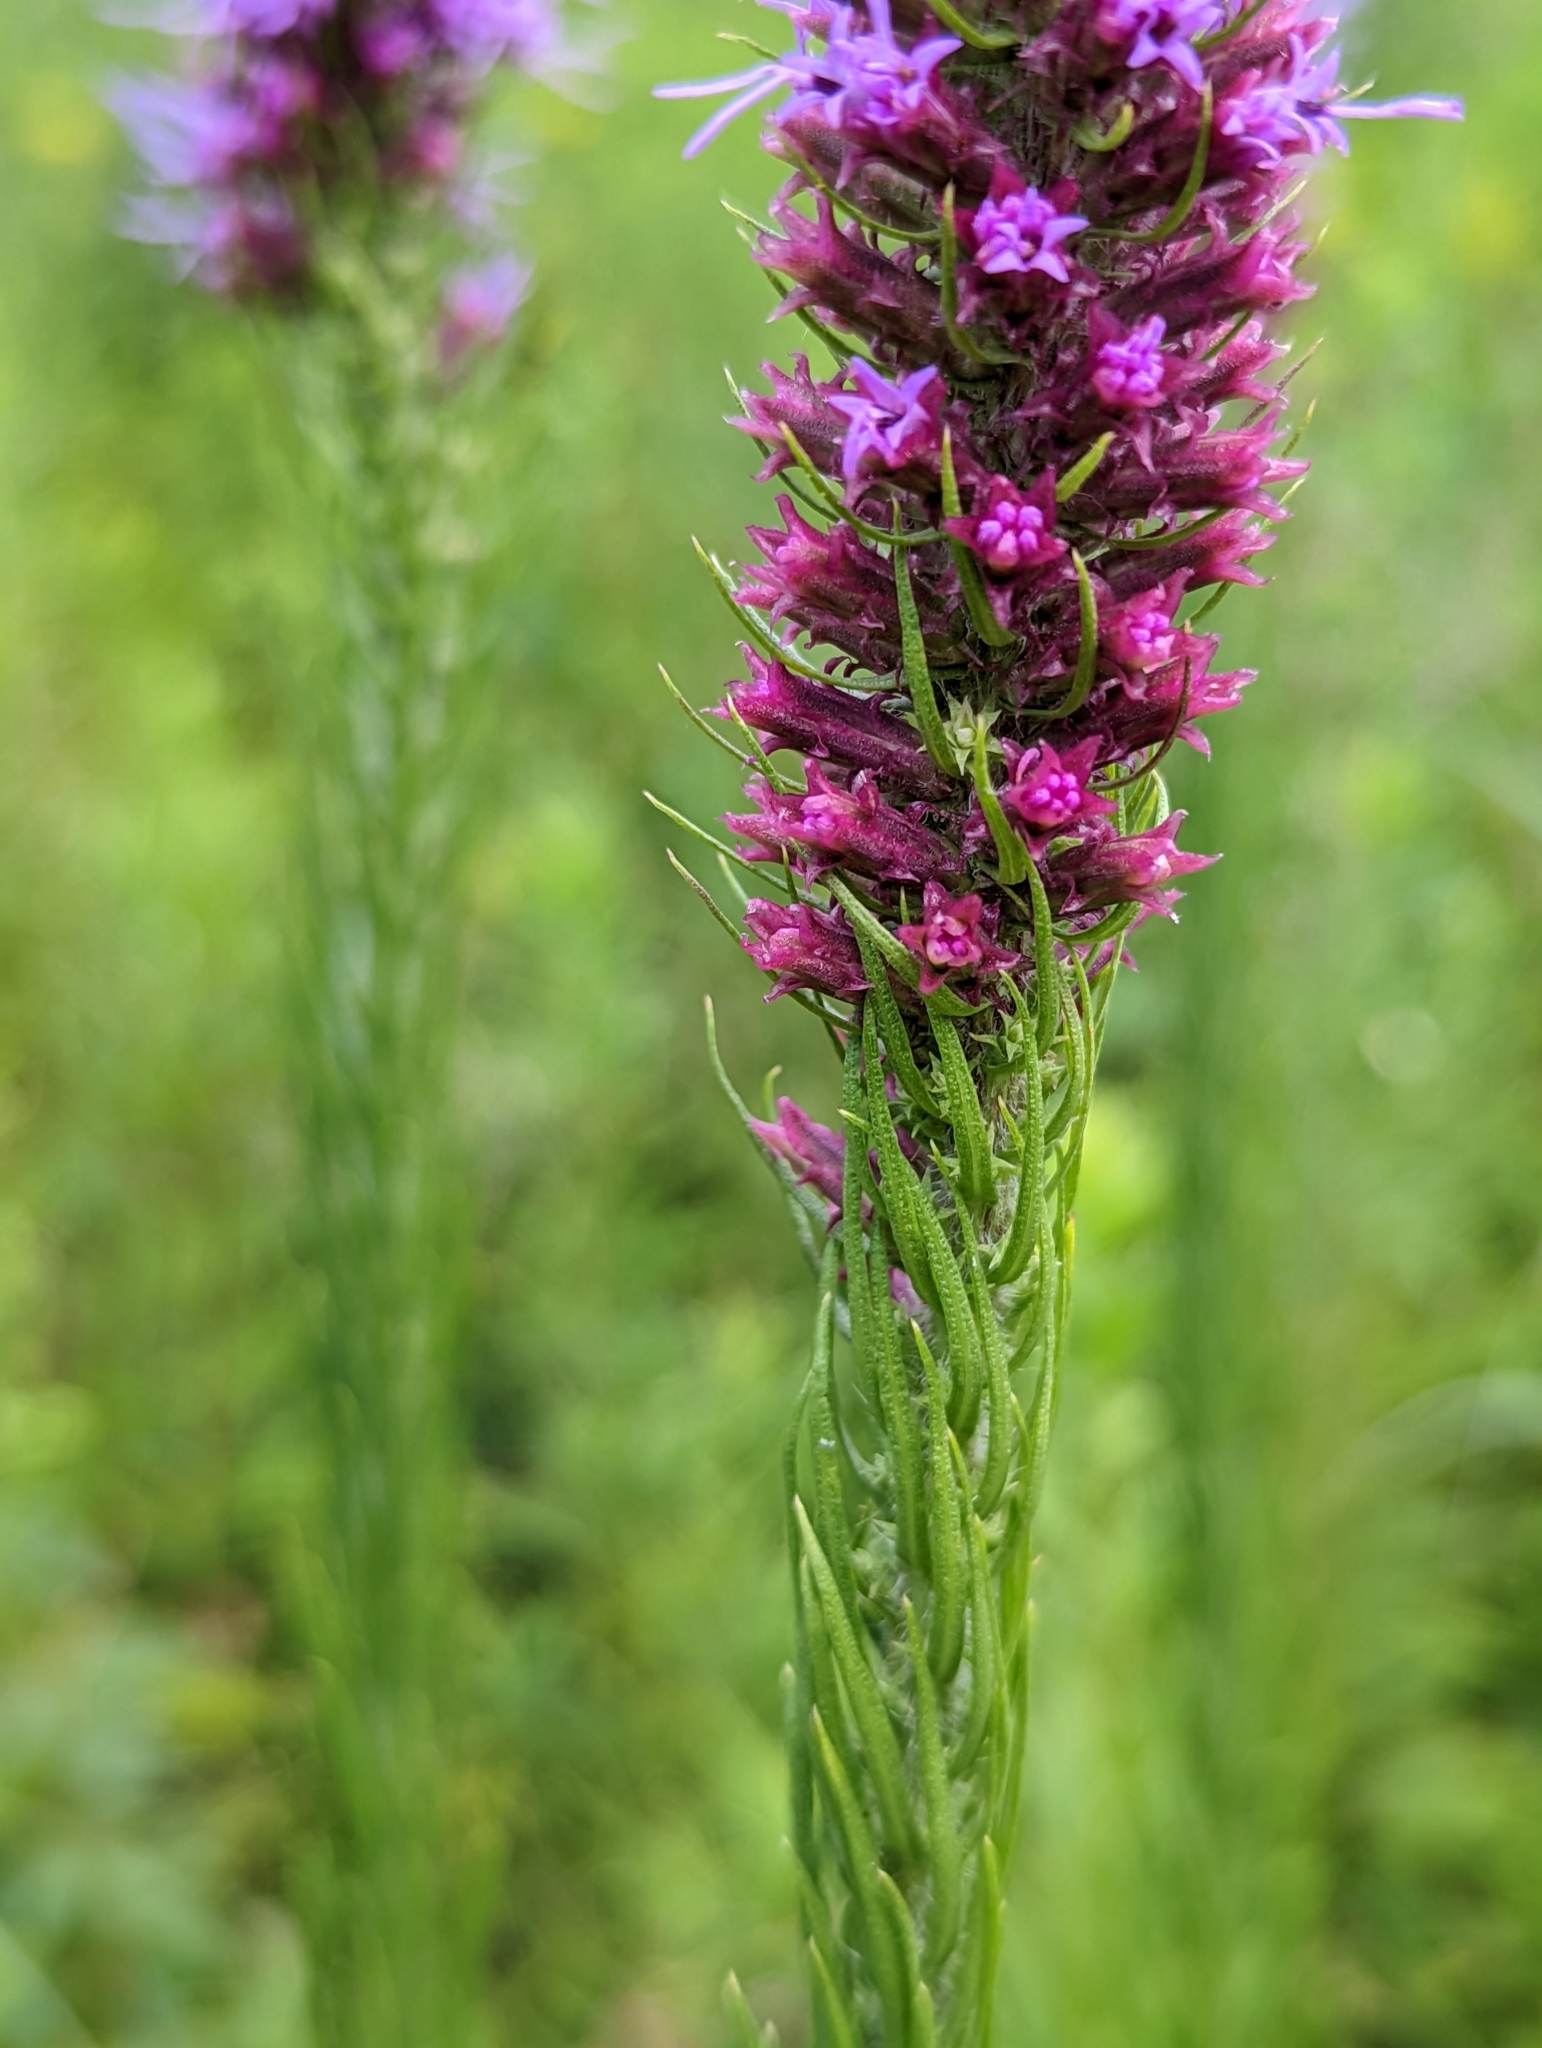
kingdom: Plantae
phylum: Tracheophyta
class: Magnoliopsida
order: Asterales
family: Asteraceae
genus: Liatris
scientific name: Liatris pycnostachya
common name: Cattail gayfeather
